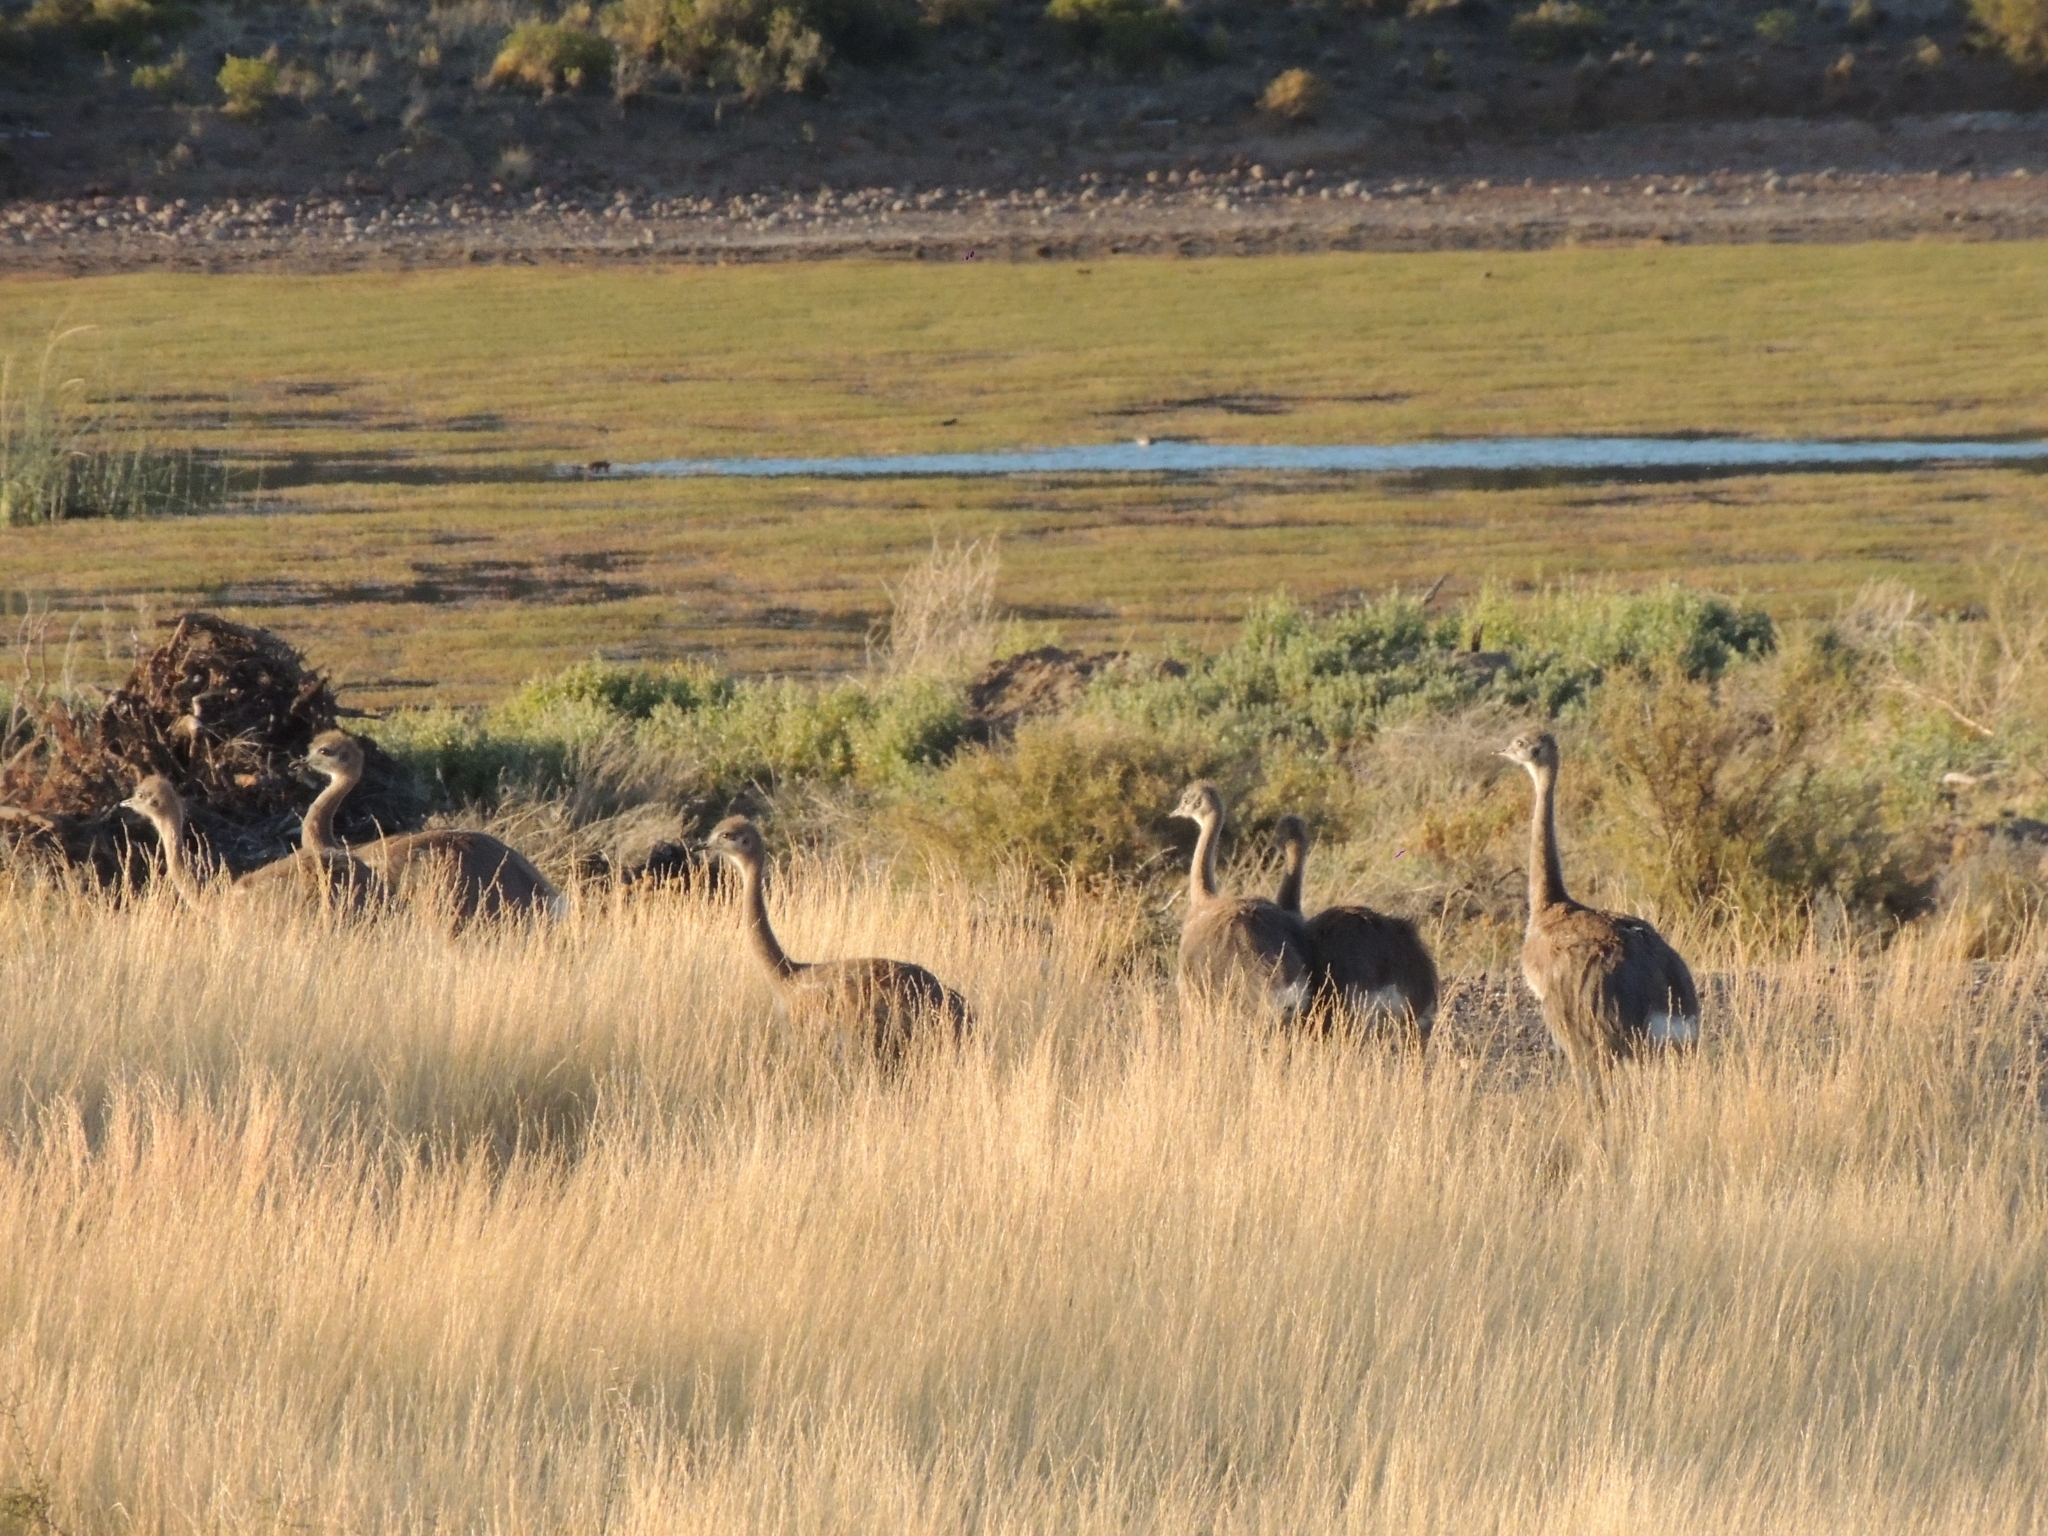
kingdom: Animalia
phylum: Chordata
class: Aves
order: Rheiformes
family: Rheidae
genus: Rhea
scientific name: Rhea pennata
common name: Lesser rhea
